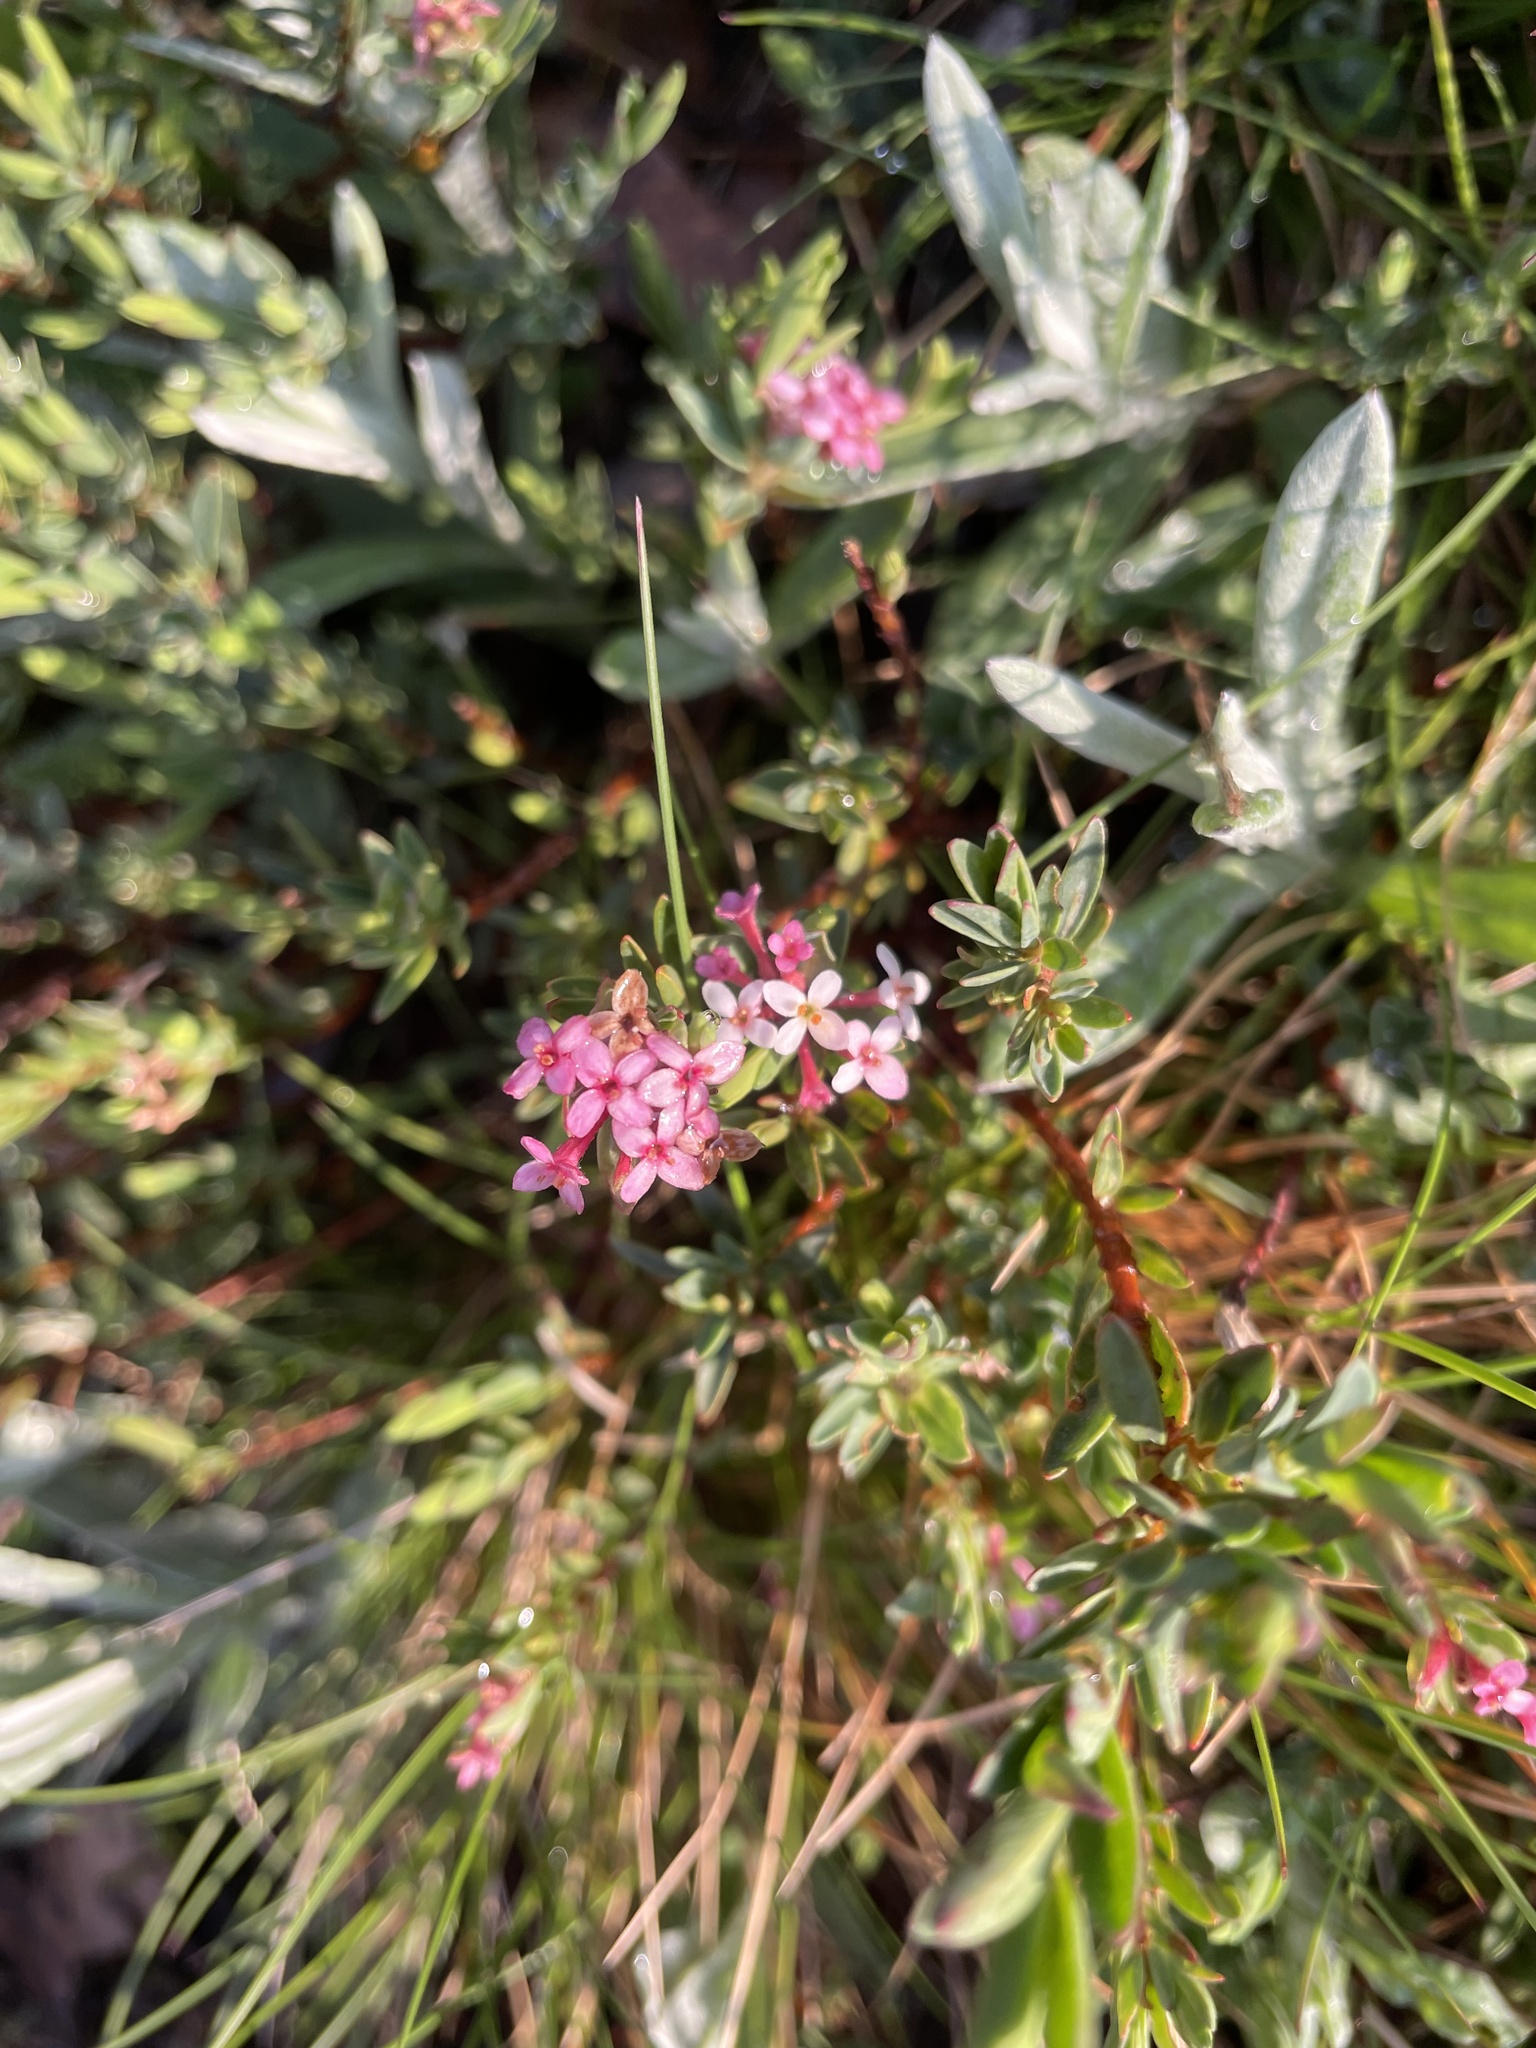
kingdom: Plantae
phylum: Tracheophyta
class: Magnoliopsida
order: Malvales
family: Thymelaeaceae
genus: Pimelea
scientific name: Pimelea alpina
